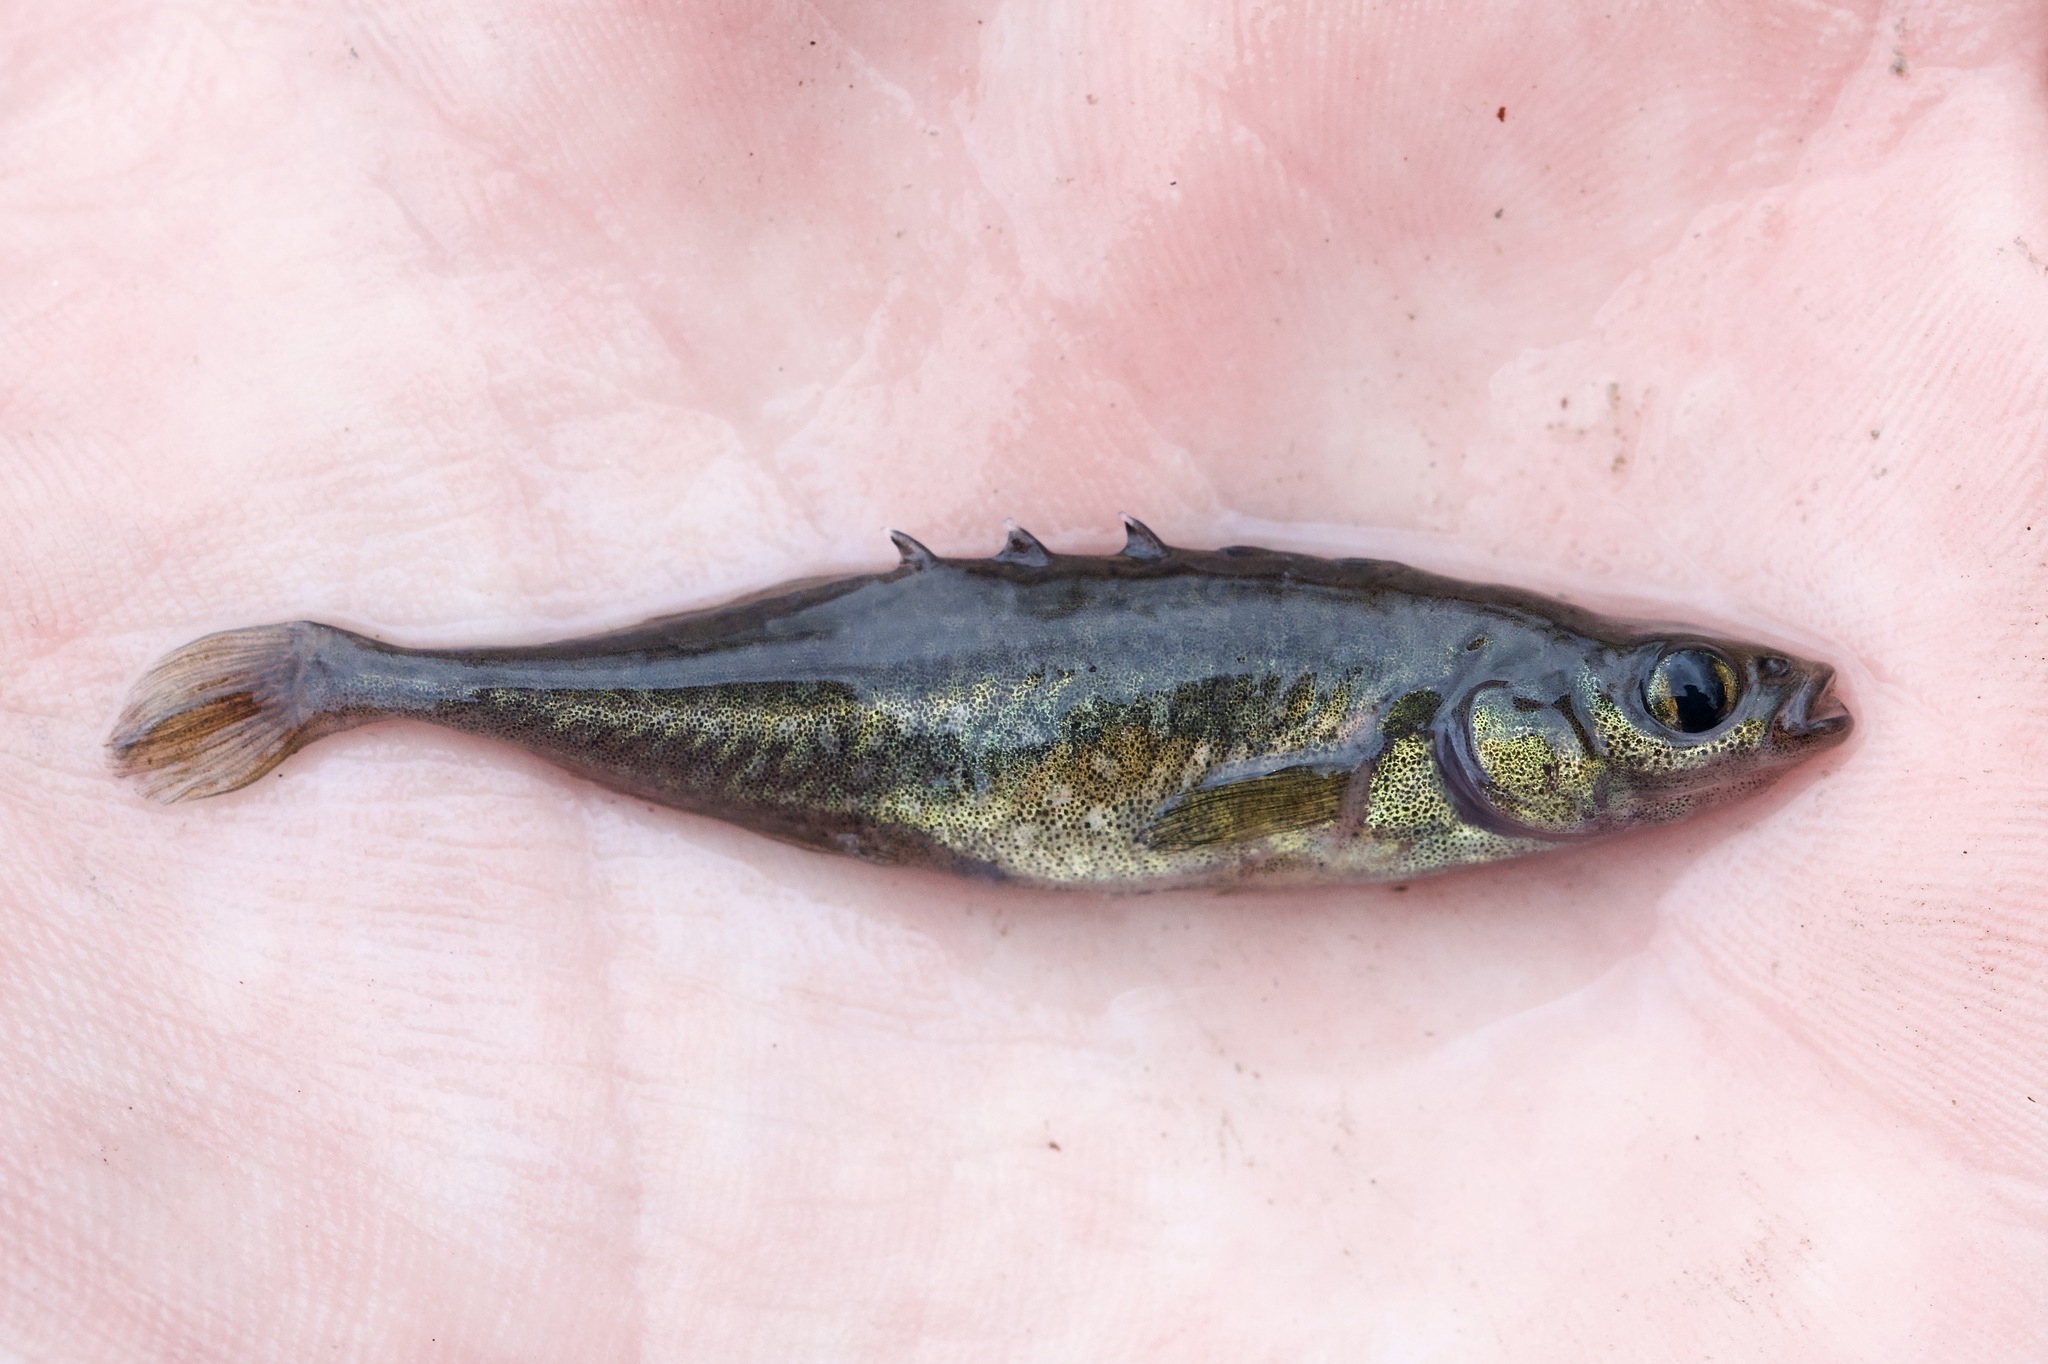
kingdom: Animalia
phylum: Chordata
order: Gasterosteiformes
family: Gasterosteidae
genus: Culaea
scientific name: Culaea inconstans
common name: Brook stickleback
